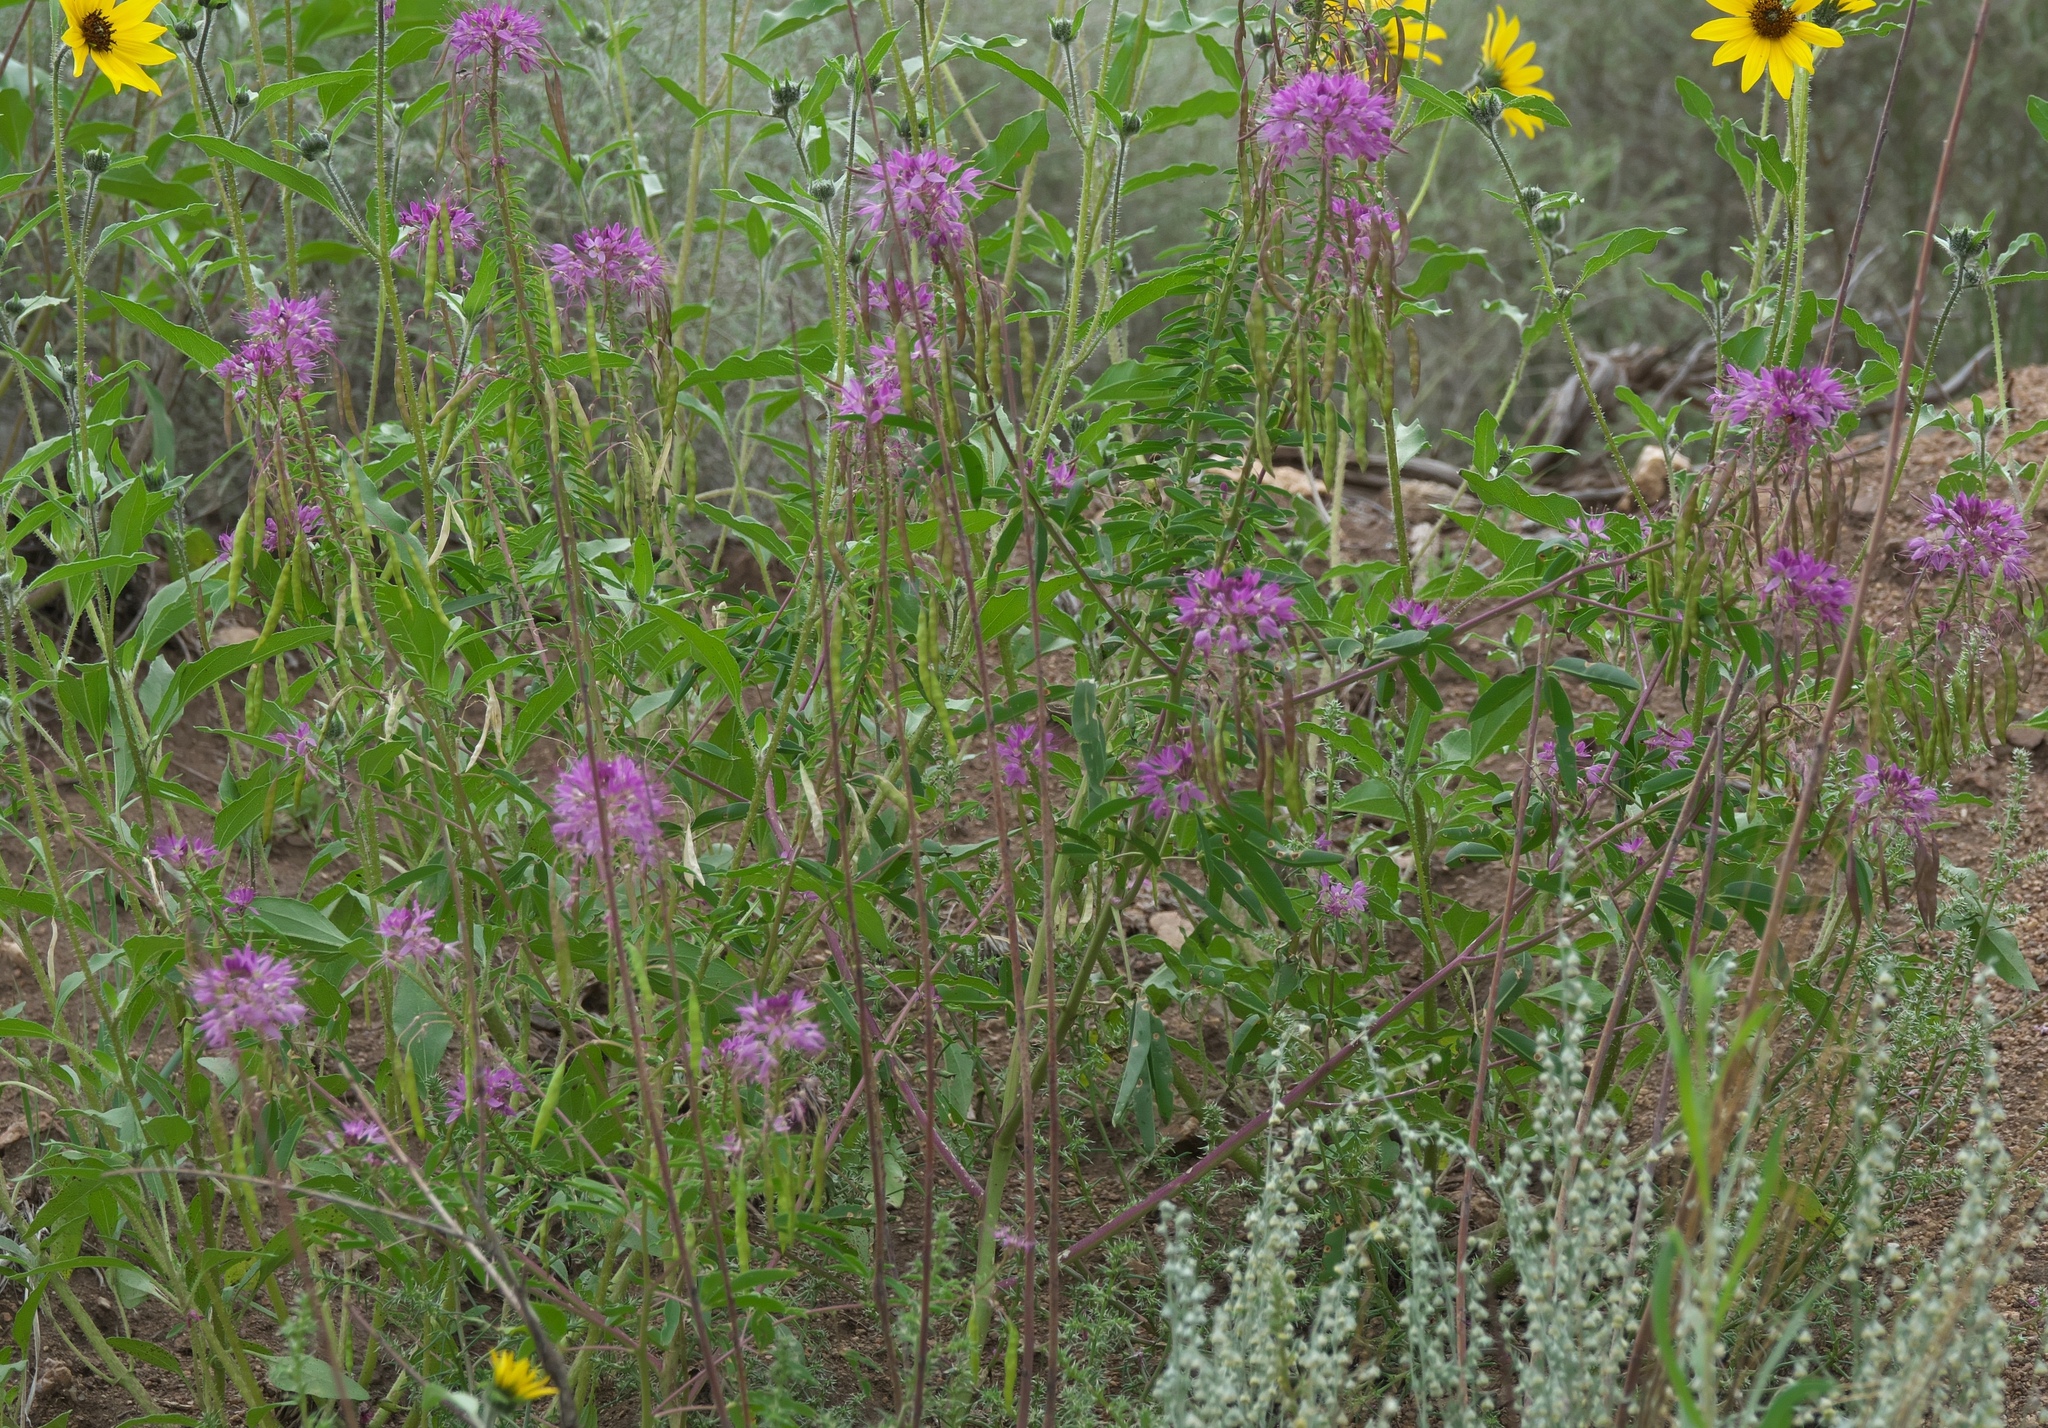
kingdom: Plantae
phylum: Tracheophyta
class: Magnoliopsida
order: Brassicales
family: Cleomaceae
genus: Cleomella
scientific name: Cleomella serrulata
